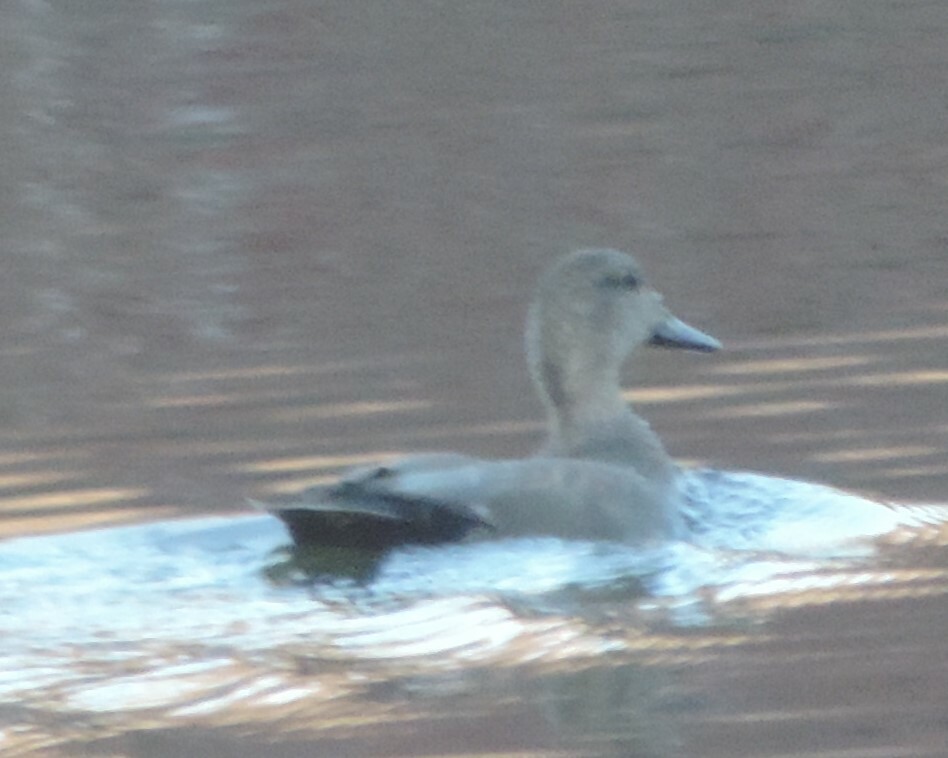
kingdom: Animalia
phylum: Chordata
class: Aves
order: Anseriformes
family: Anatidae
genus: Mareca
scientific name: Mareca strepera
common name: Gadwall
